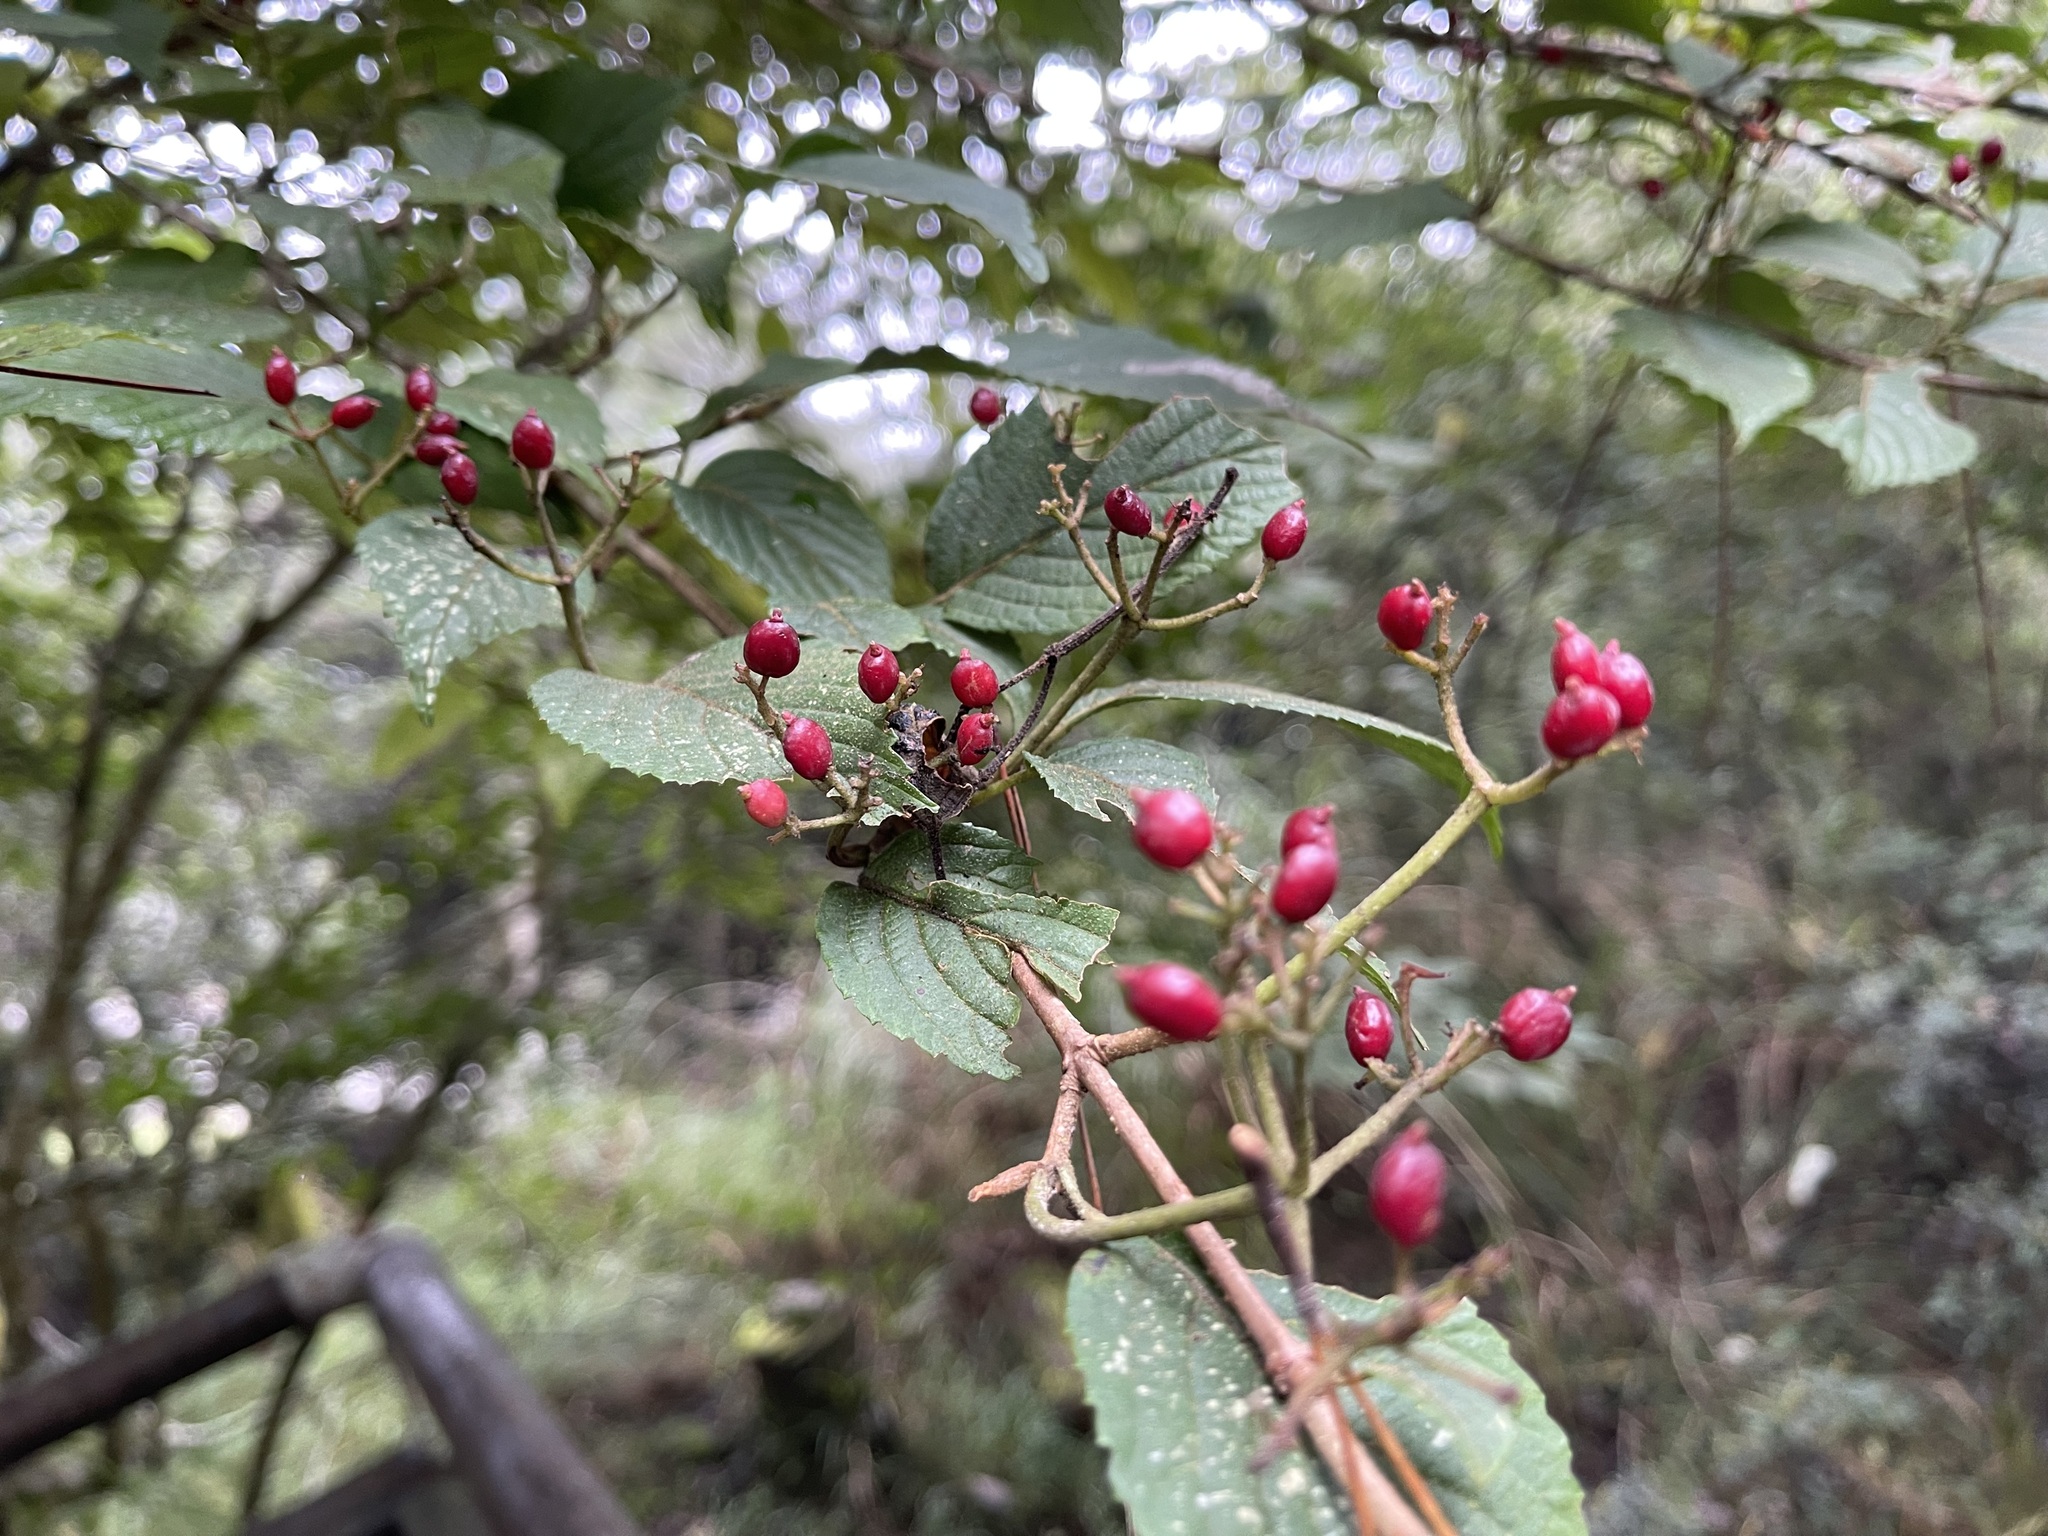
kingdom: Plantae
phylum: Tracheophyta
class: Magnoliopsida
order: Dipsacales
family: Viburnaceae
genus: Viburnum
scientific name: Viburnum plicatum
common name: Japanese snowball
